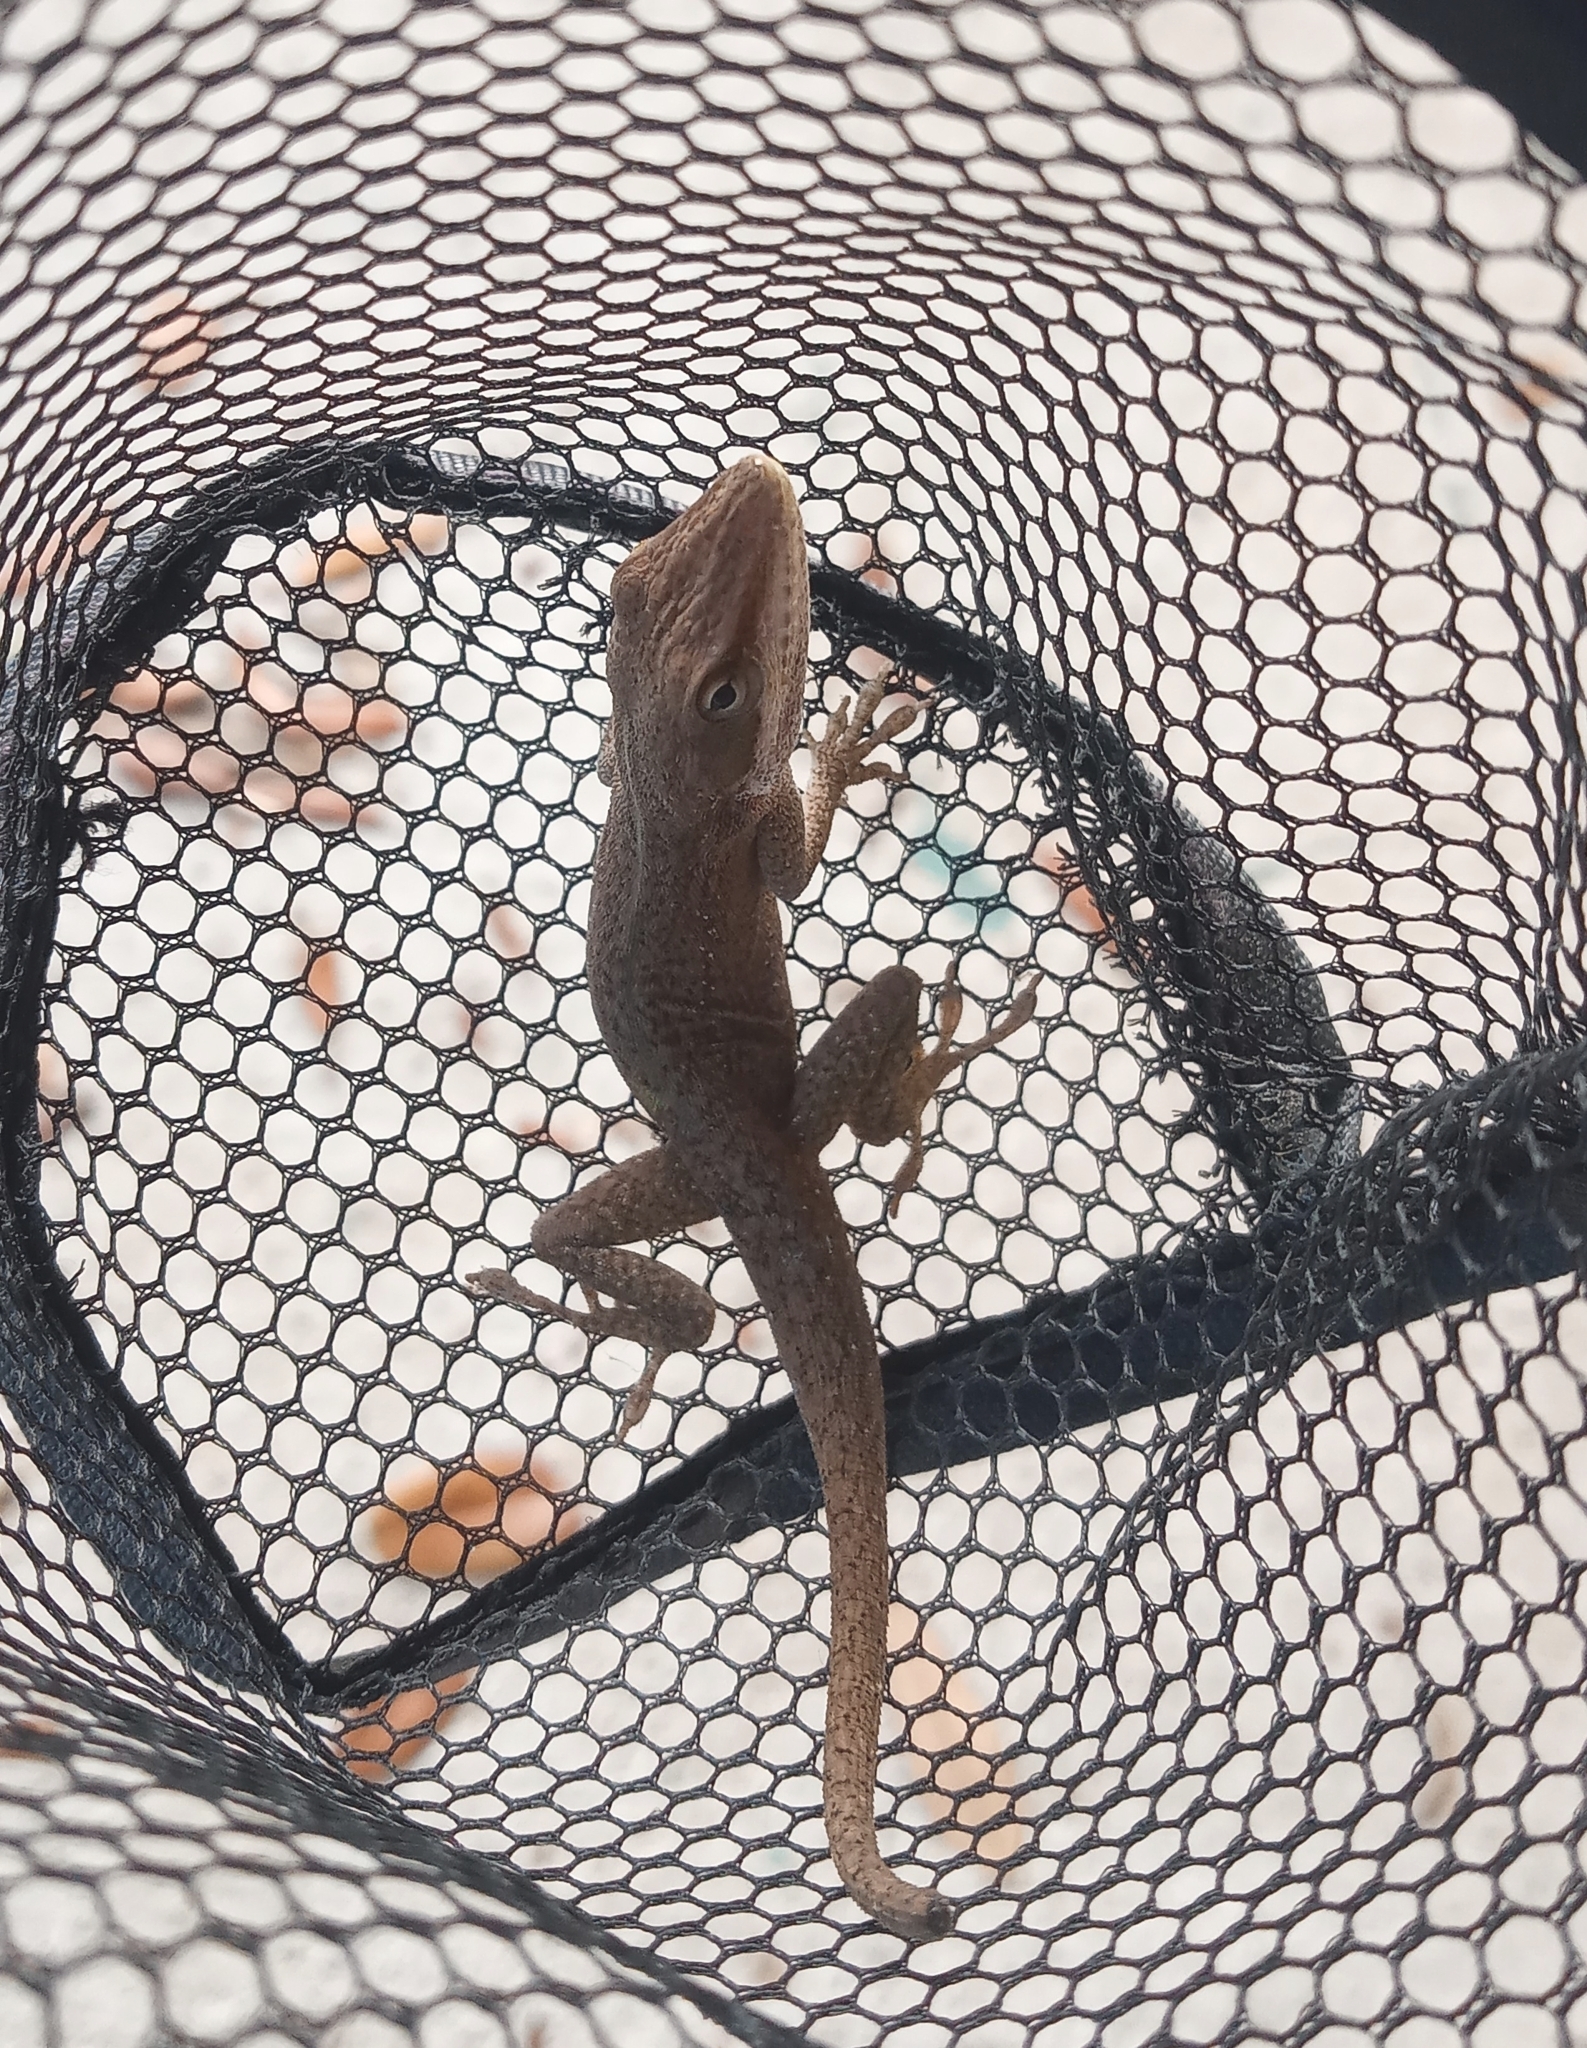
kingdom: Animalia
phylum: Chordata
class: Squamata
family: Dactyloidae
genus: Anolis
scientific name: Anolis carolinensis
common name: Green anole
